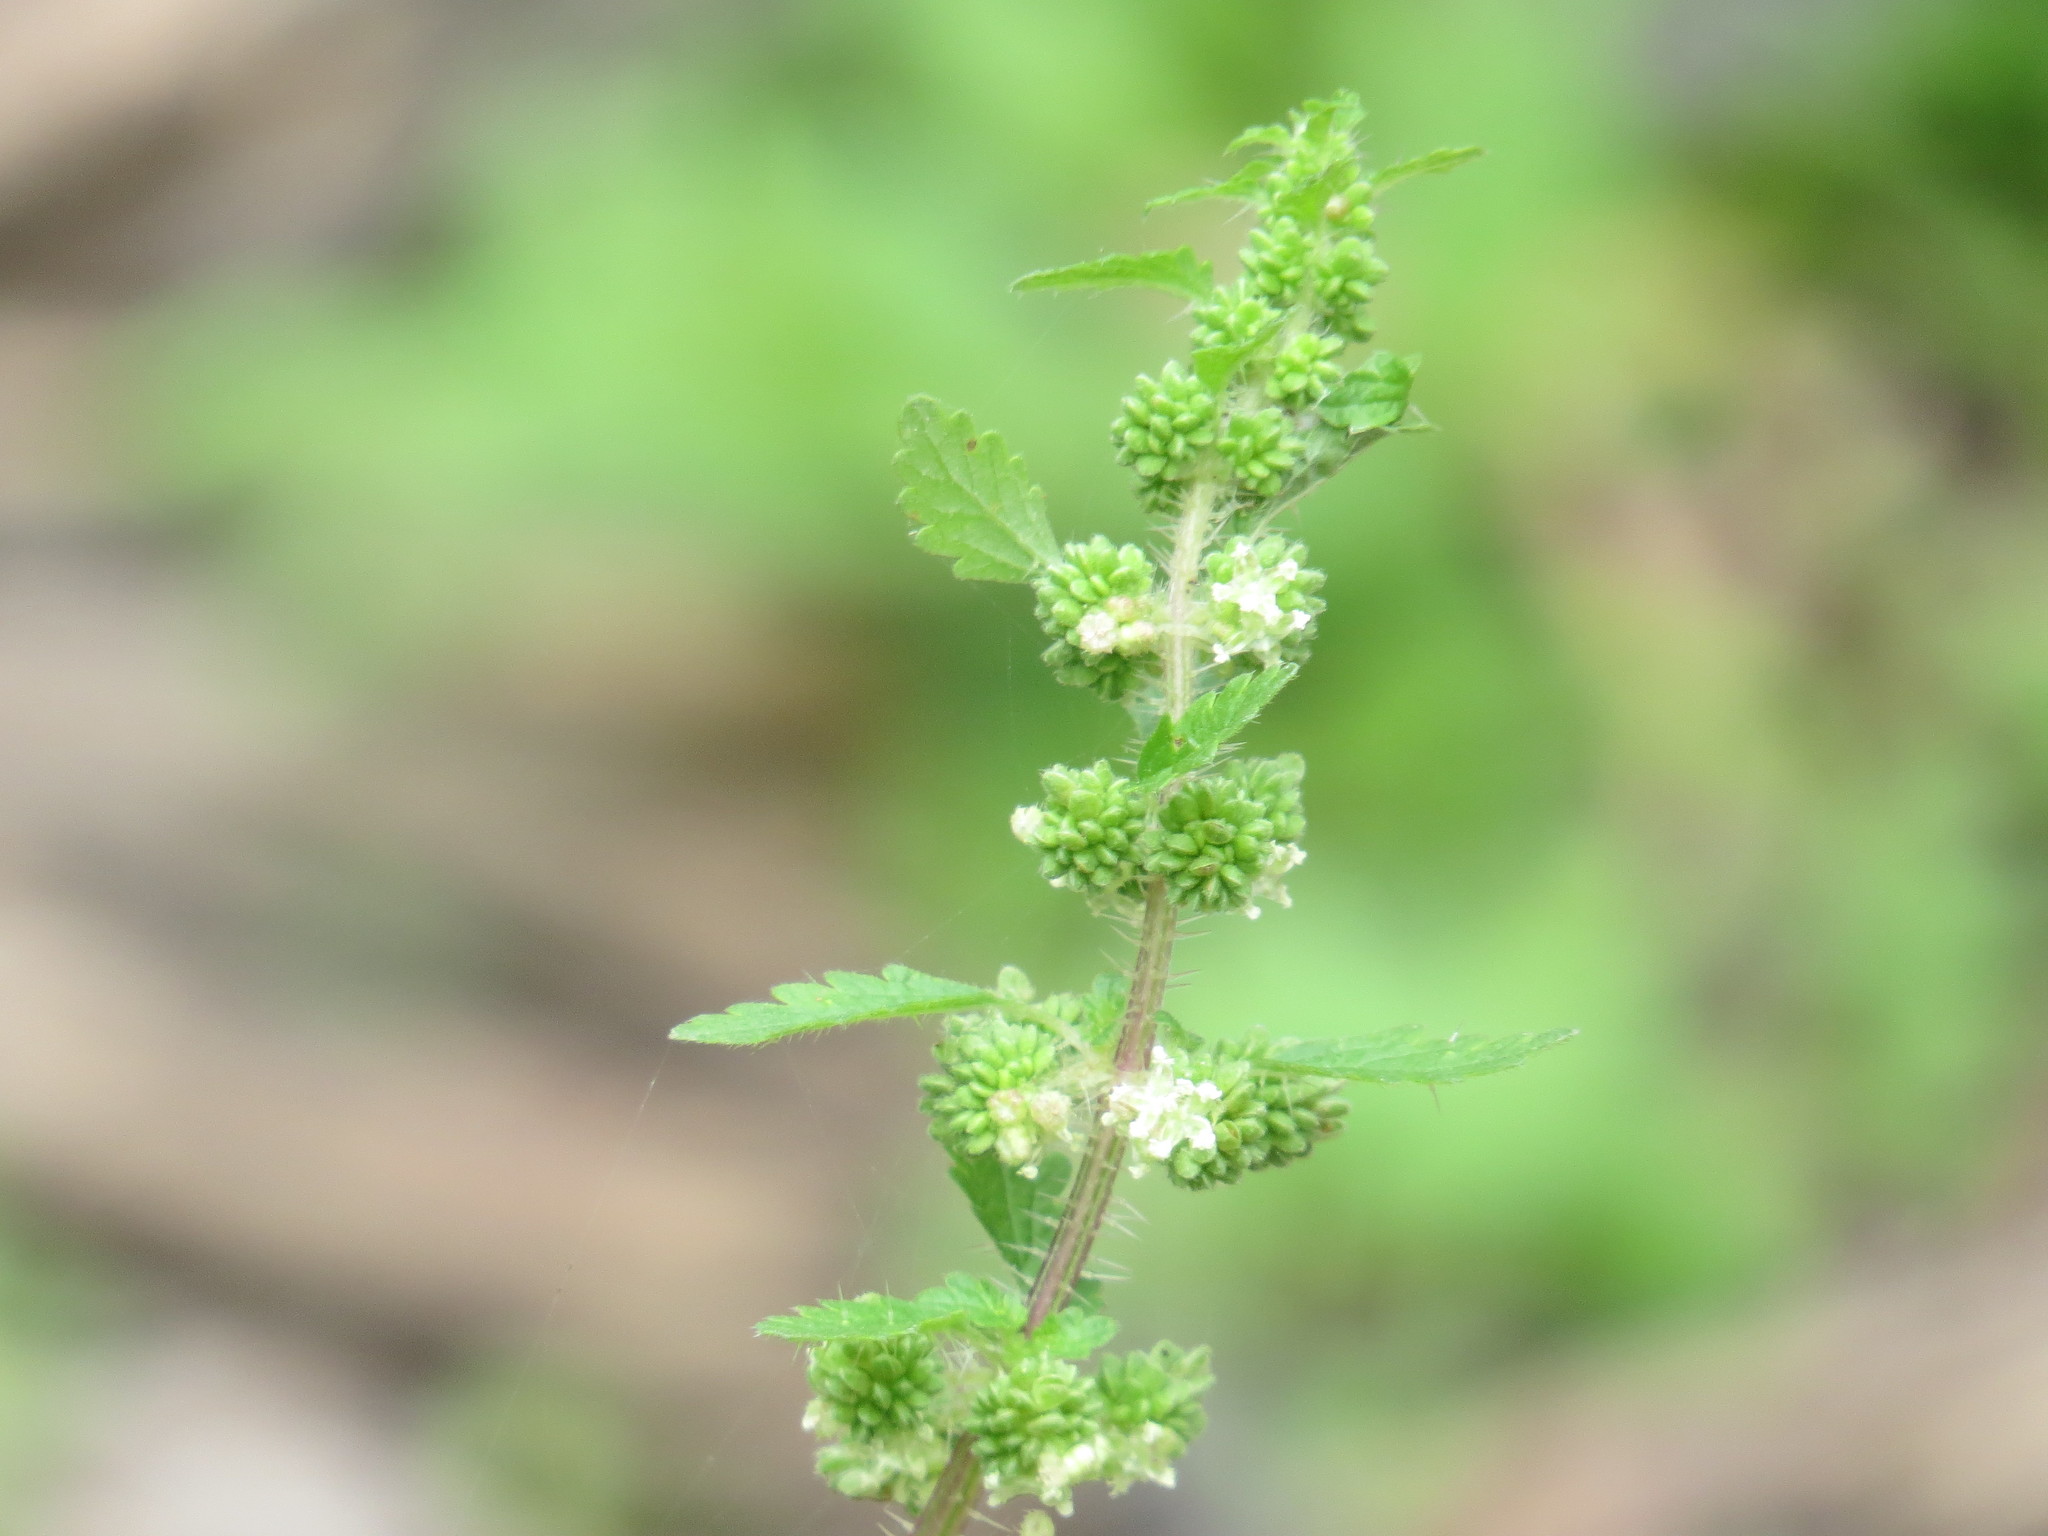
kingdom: Plantae
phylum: Tracheophyta
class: Magnoliopsida
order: Rosales
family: Urticaceae
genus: Urtica
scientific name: Urtica chamaedryoides
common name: Heart-leaf nettle
